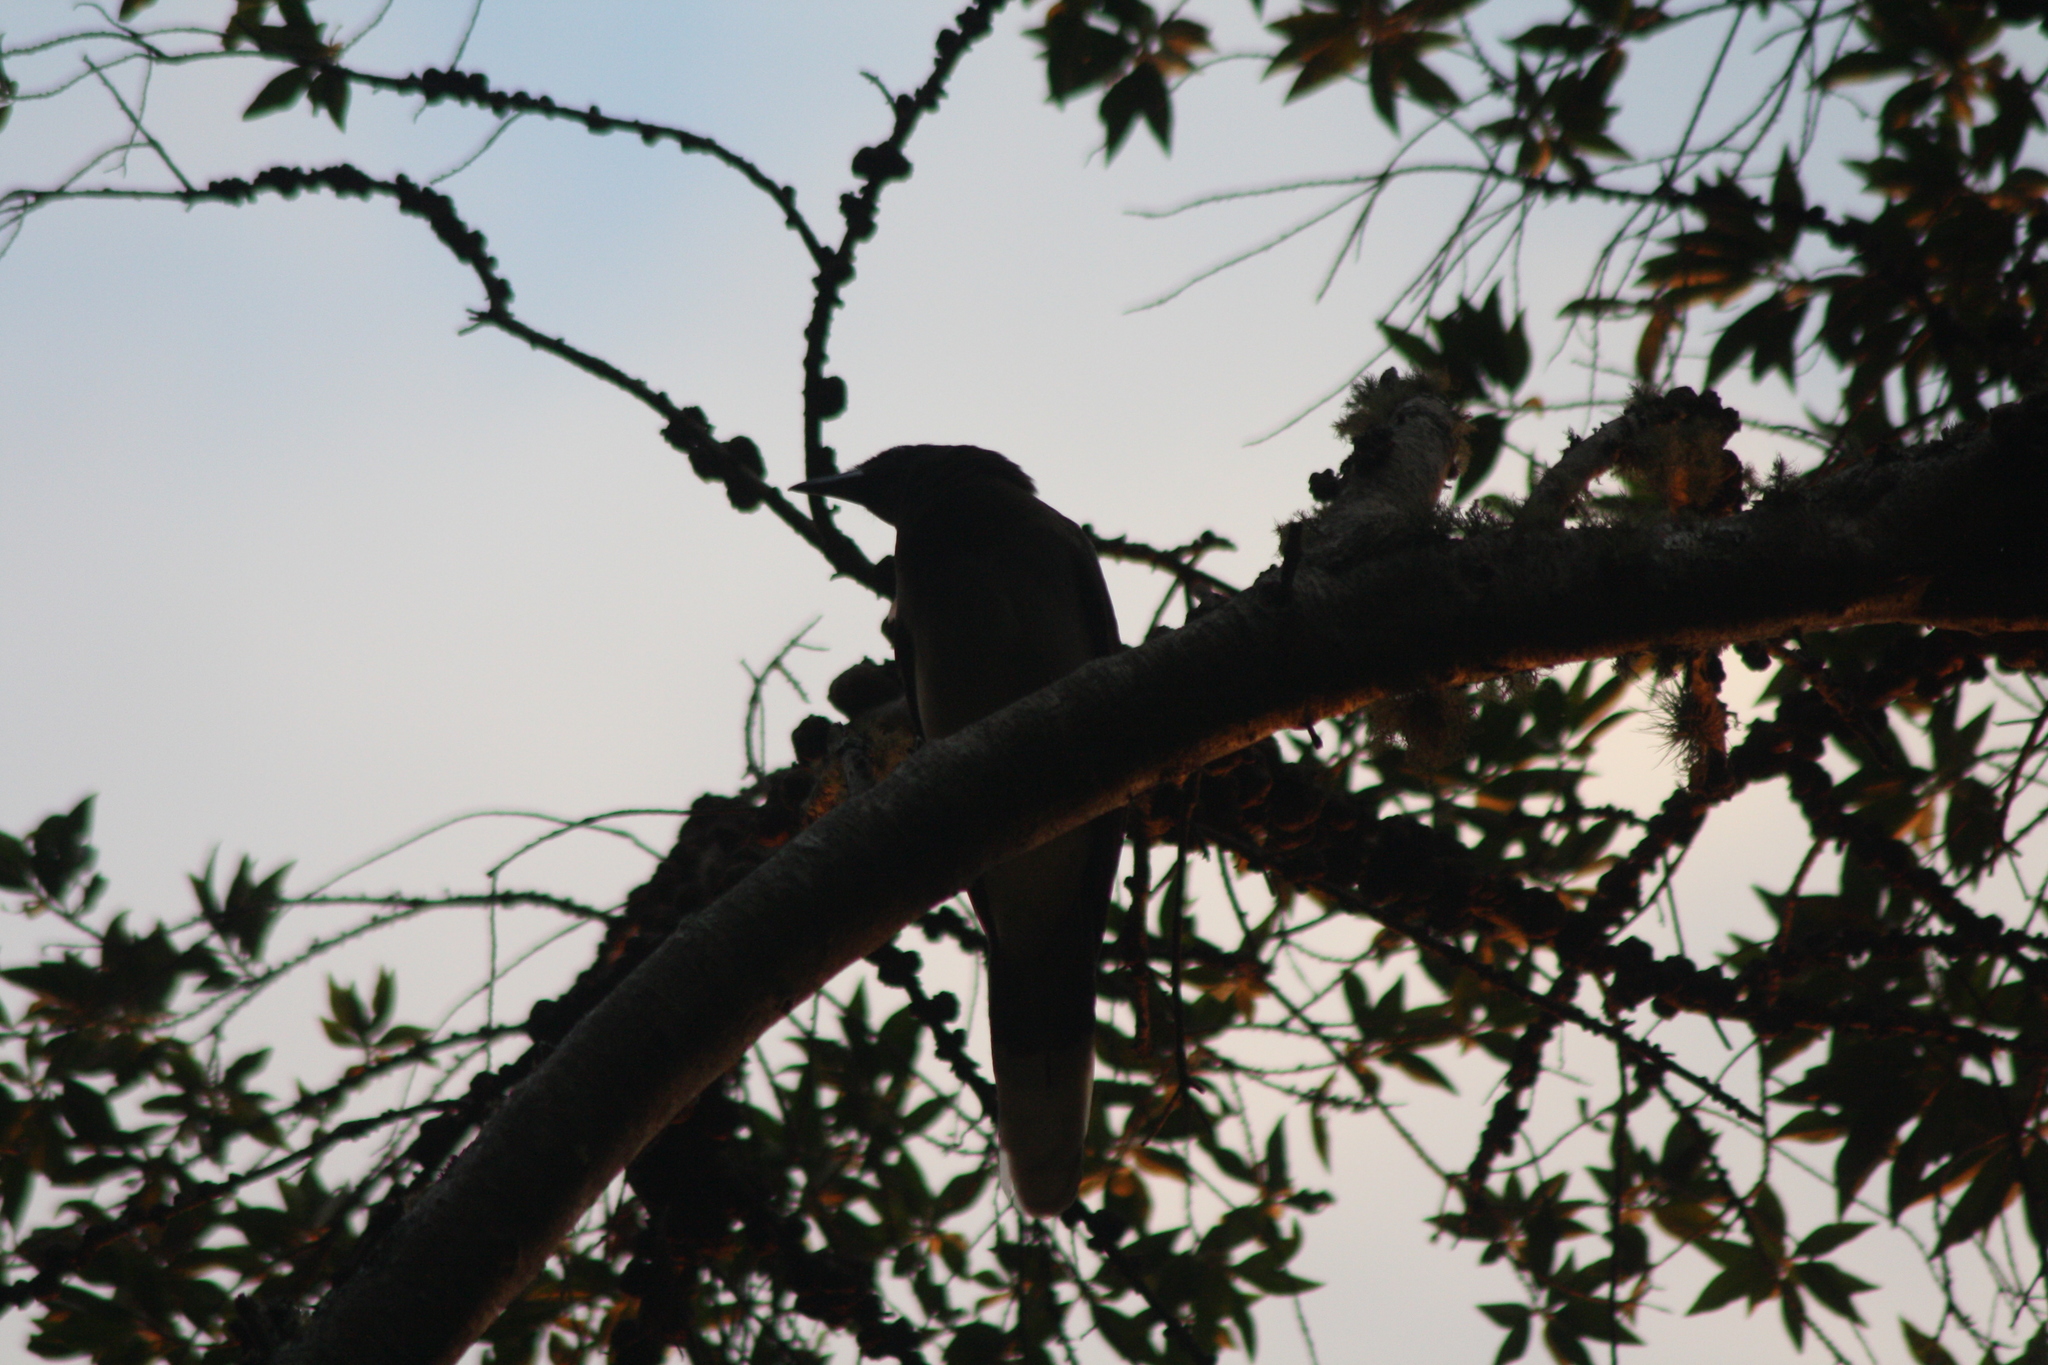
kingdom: Animalia
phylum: Chordata
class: Aves
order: Passeriformes
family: Corvidae
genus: Psilorhinus
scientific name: Psilorhinus morio
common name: Brown jay
